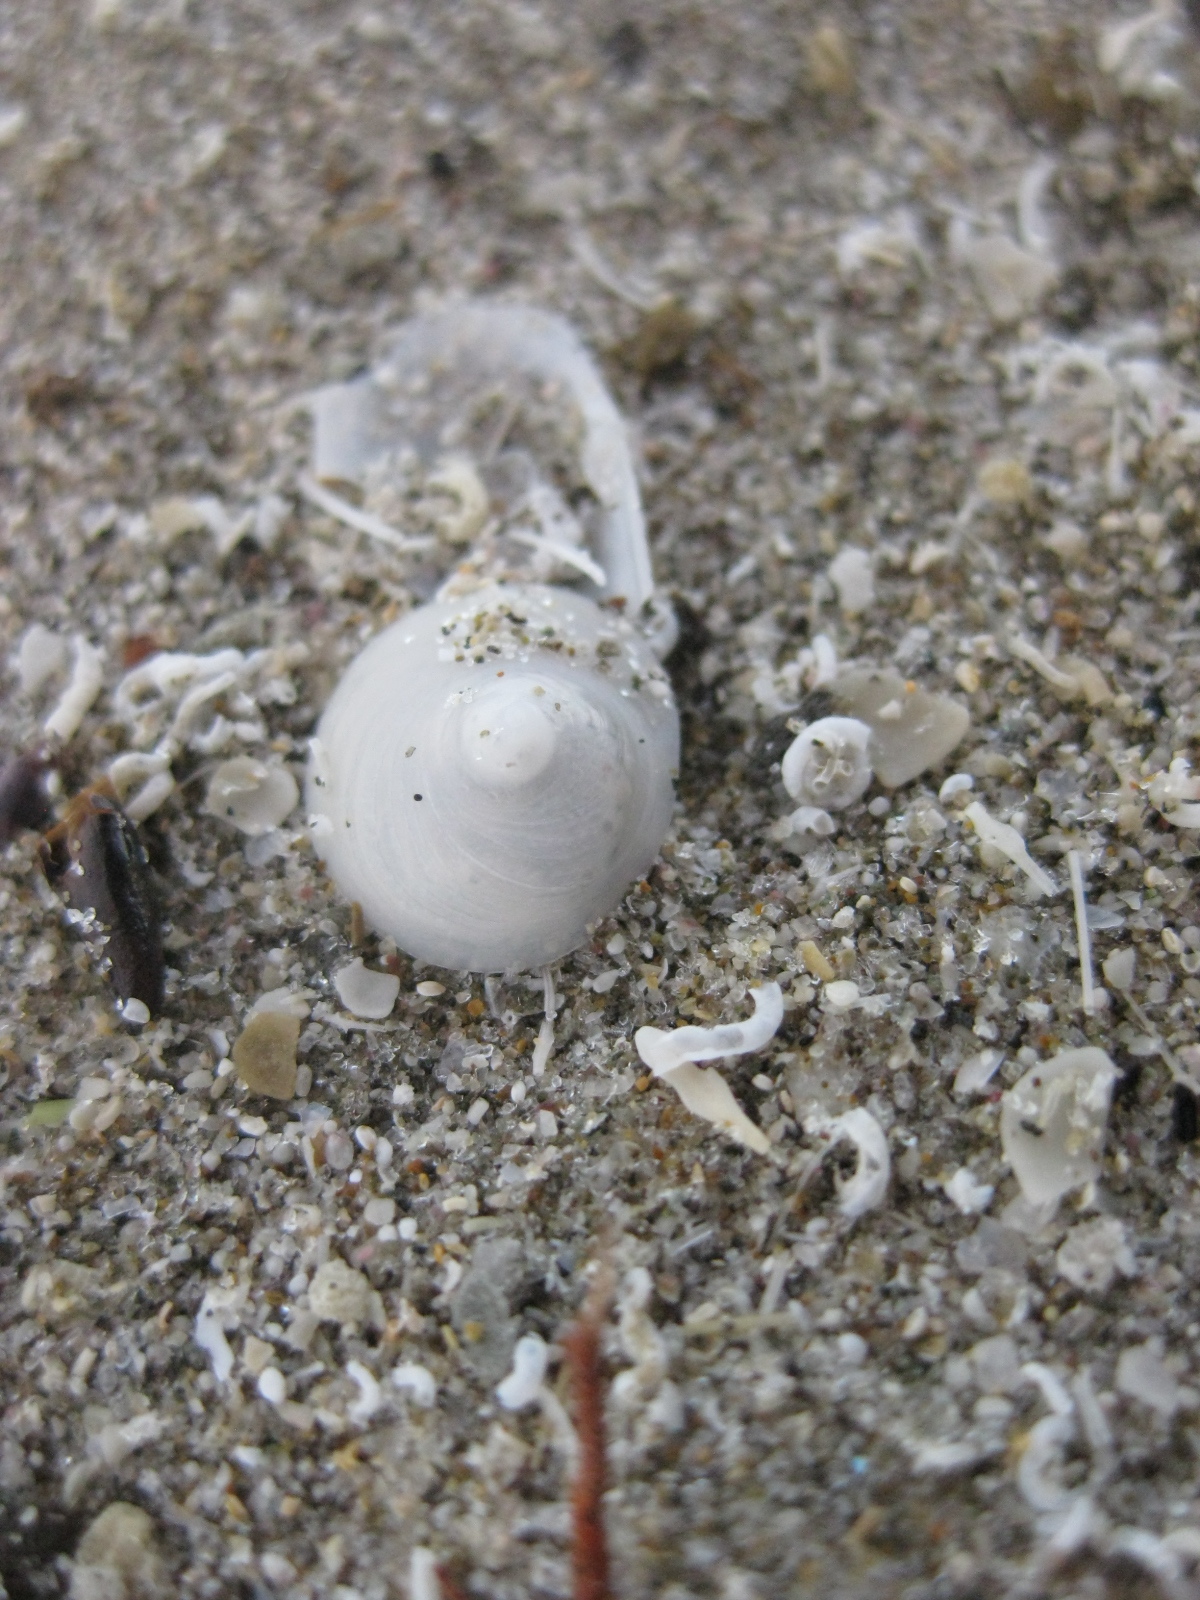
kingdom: Animalia
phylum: Mollusca
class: Gastropoda
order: Littorinimorpha
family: Calyptraeidae
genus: Sigapatella
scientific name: Sigapatella tenuis
